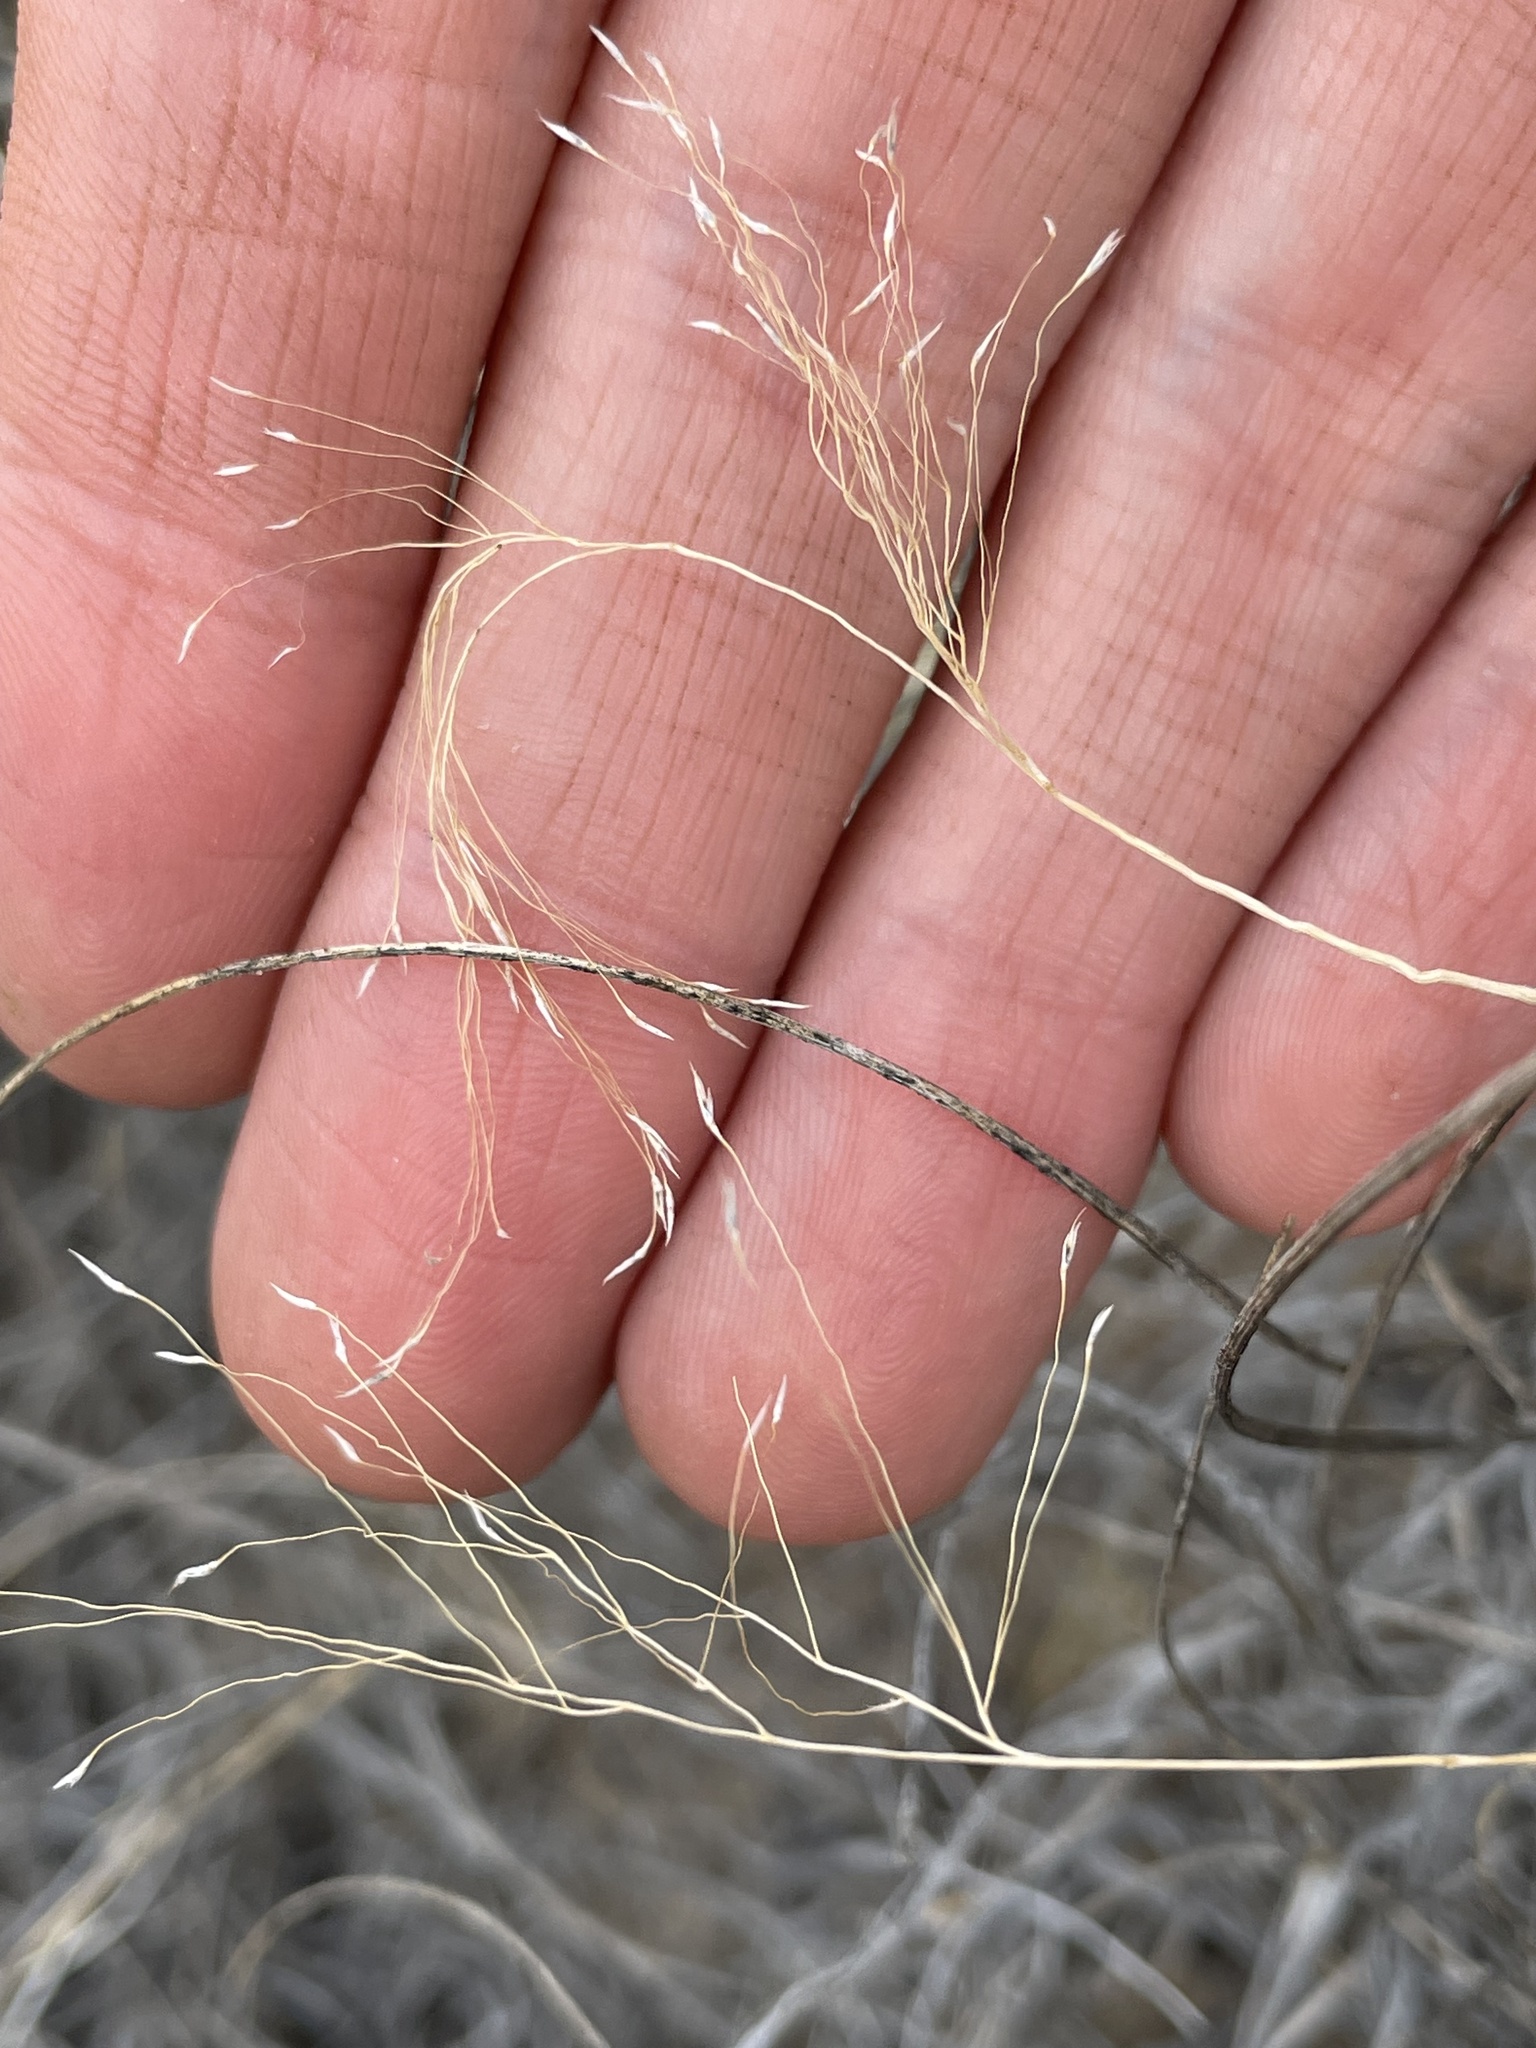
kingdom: Plantae
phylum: Tracheophyta
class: Liliopsida
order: Poales
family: Poaceae
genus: Muhlenbergia
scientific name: Muhlenbergia pungens
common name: Sandhill muhly
